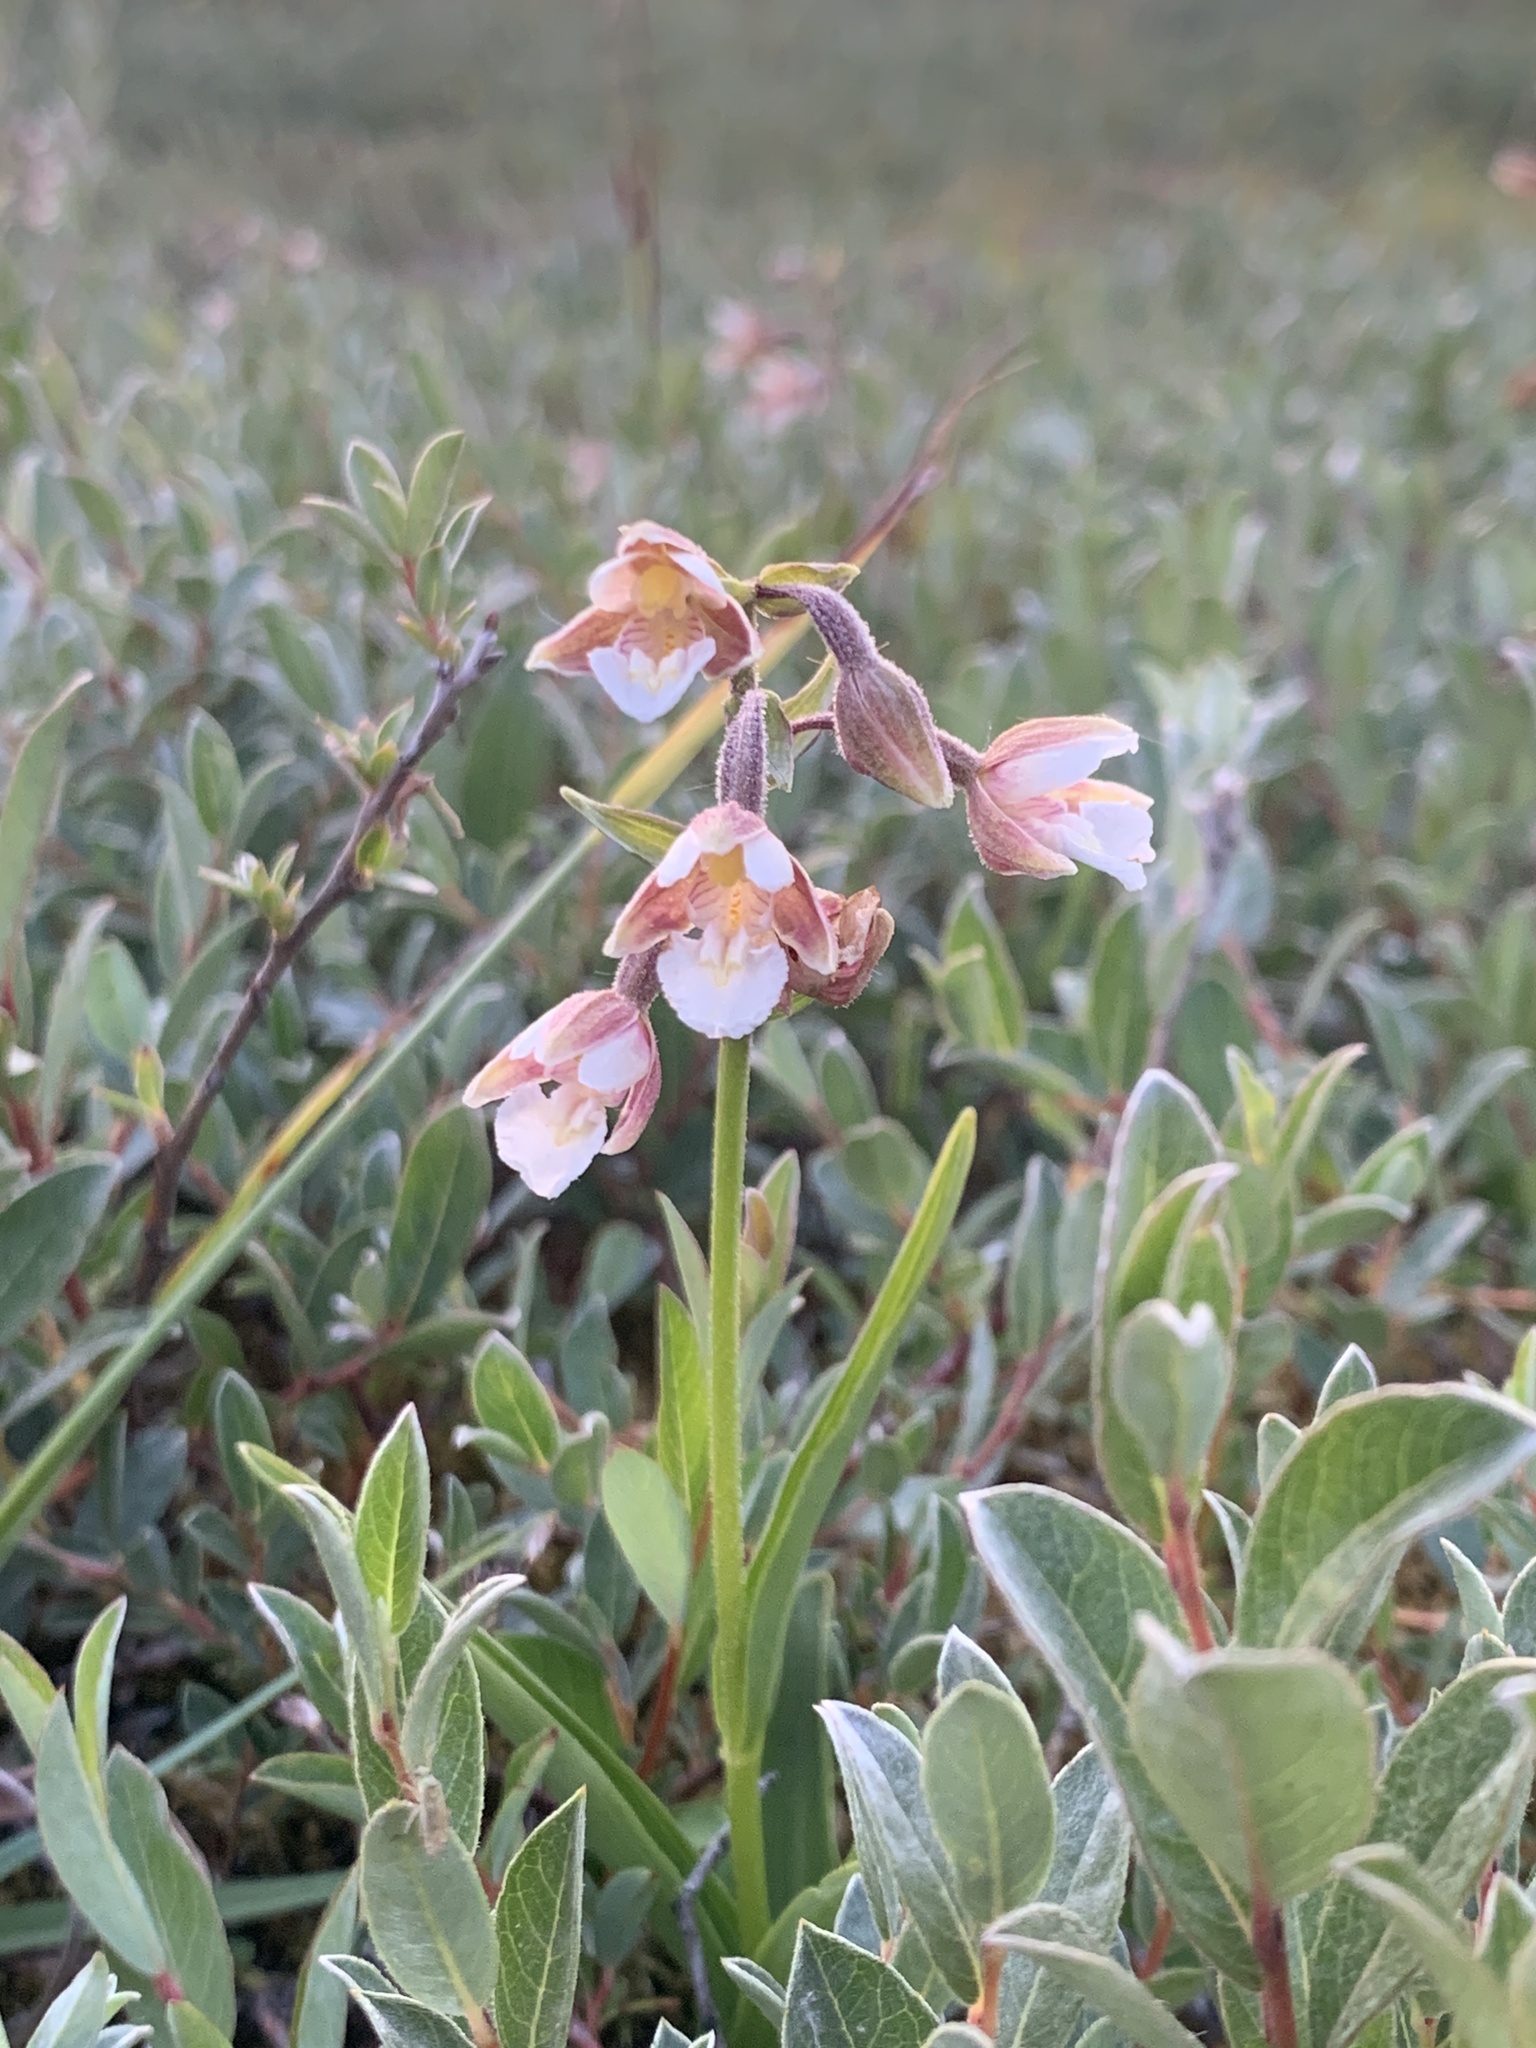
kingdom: Plantae
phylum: Tracheophyta
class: Liliopsida
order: Asparagales
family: Orchidaceae
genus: Epipactis
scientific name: Epipactis palustris
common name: Marsh helleborine
